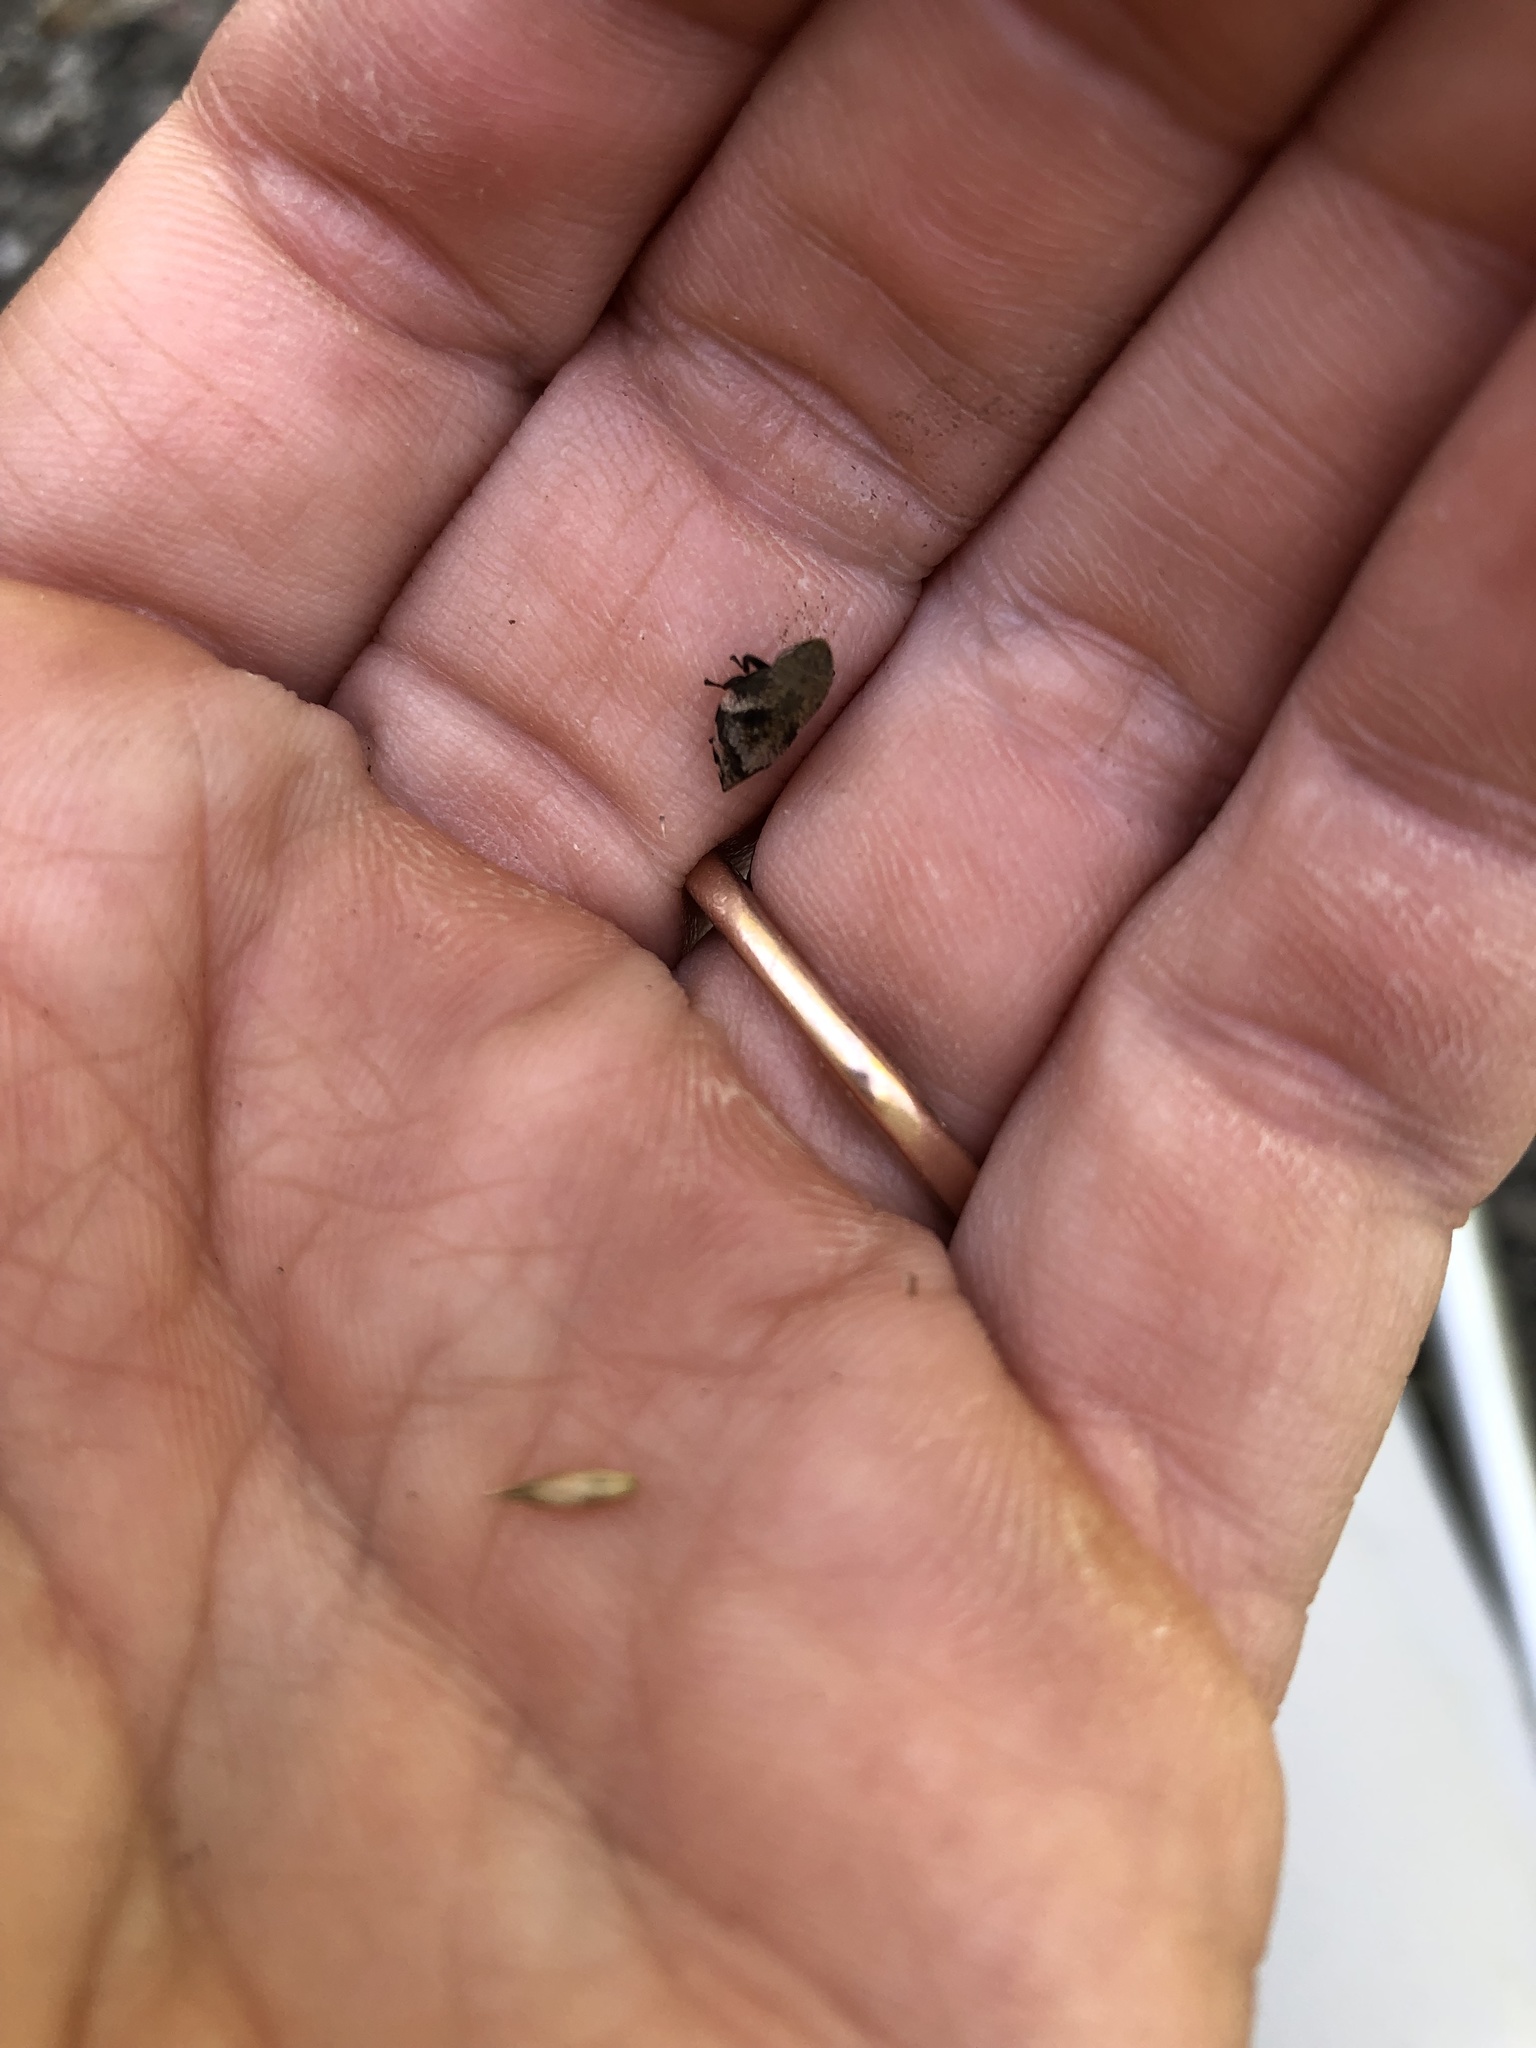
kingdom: Animalia
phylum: Arthropoda
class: Insecta
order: Hemiptera
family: Aphrophoridae
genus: Lepyronia
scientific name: Lepyronia quadrangularis
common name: Diamond-backed spittlebug
